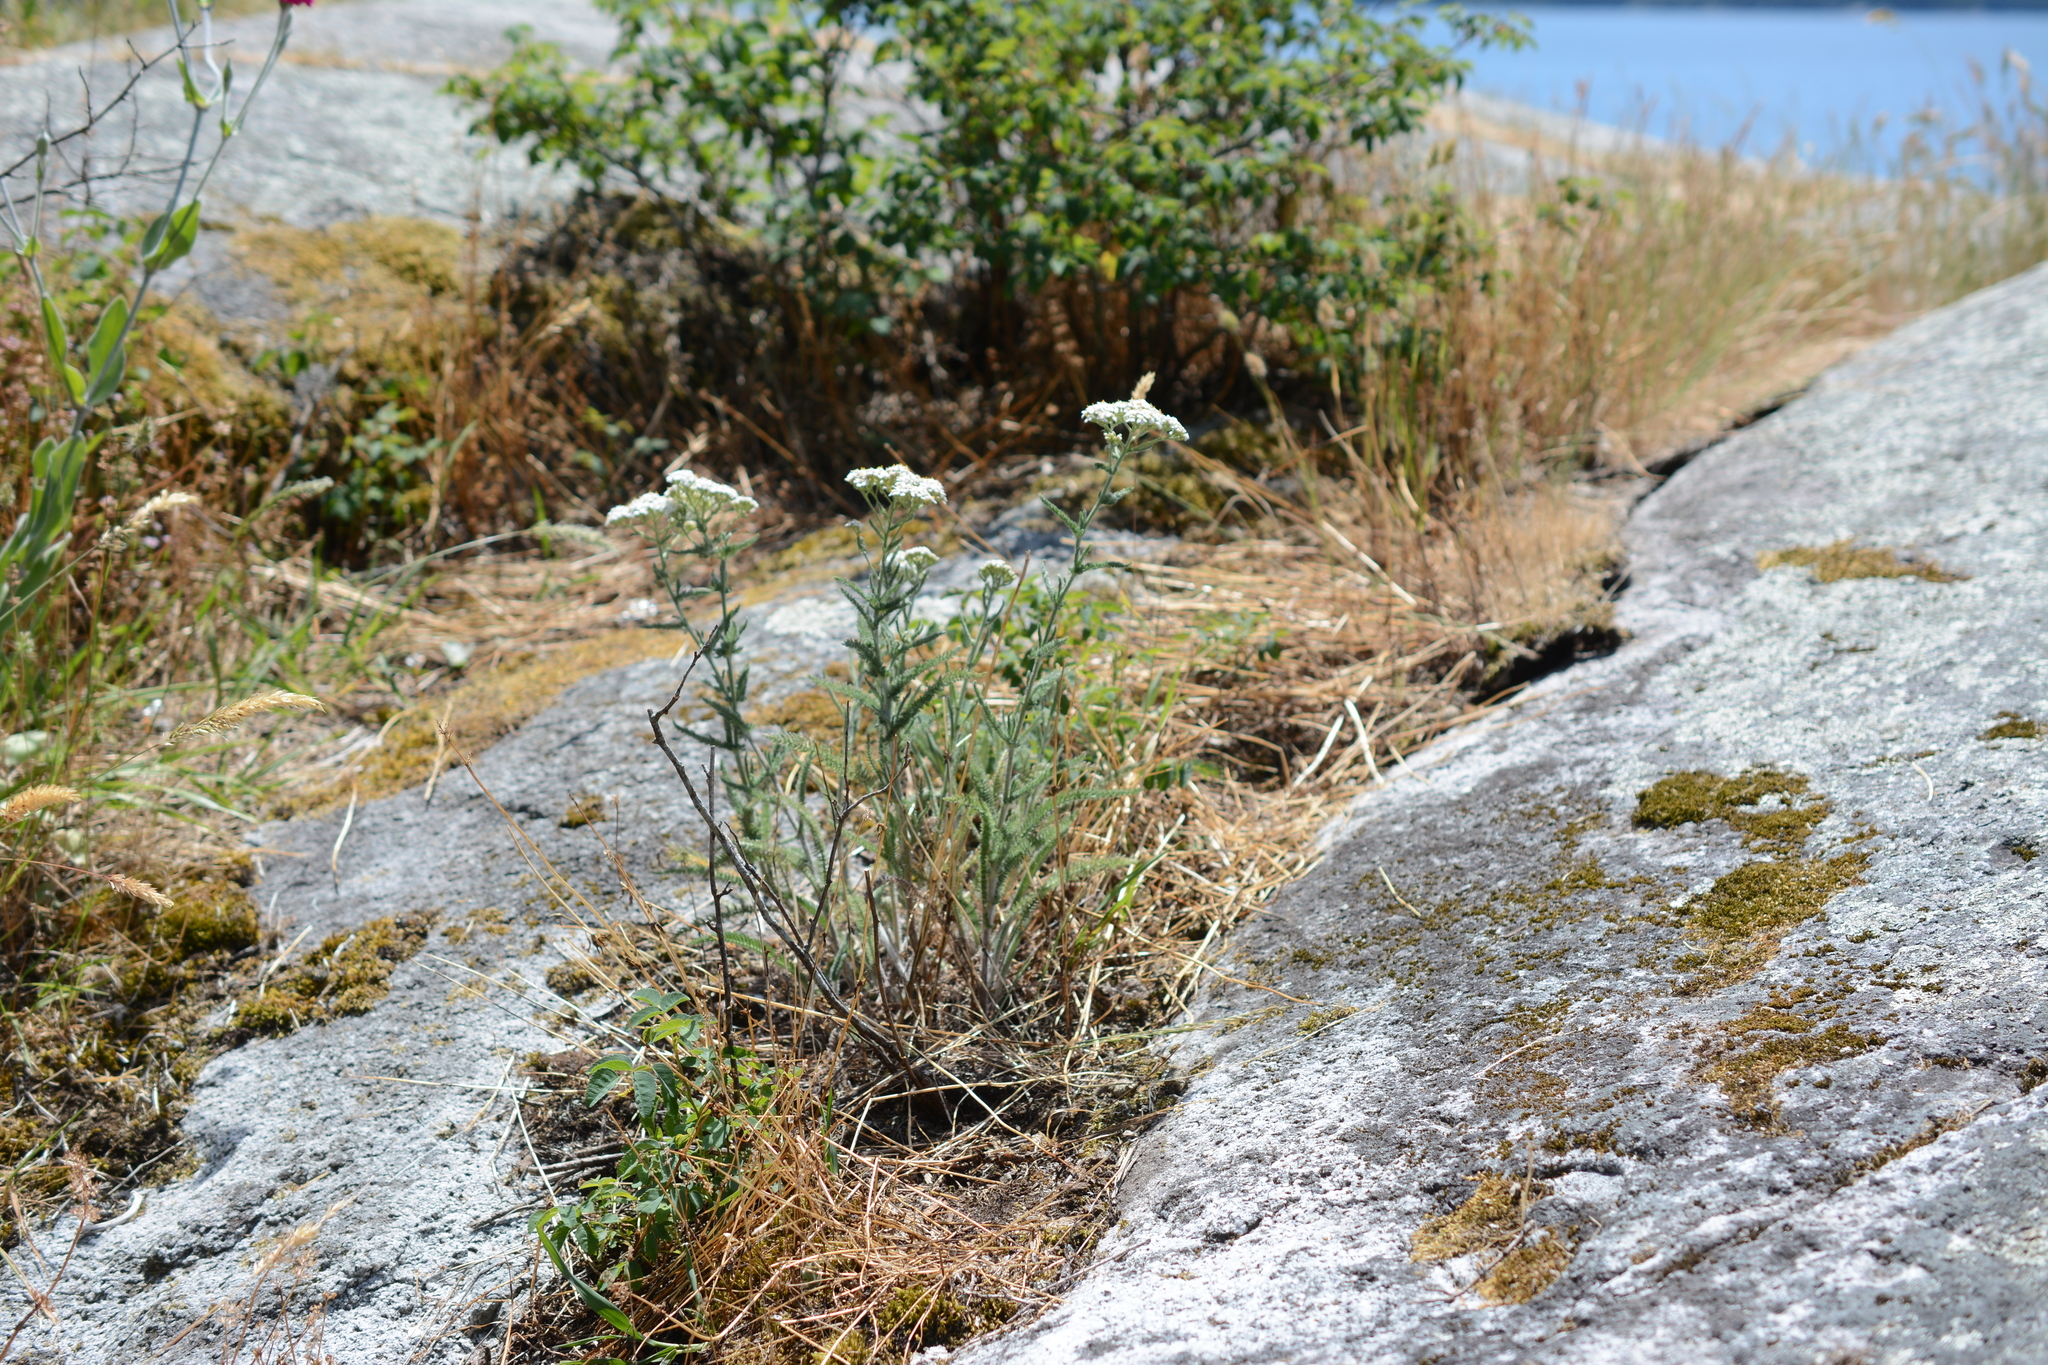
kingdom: Plantae
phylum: Tracheophyta
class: Magnoliopsida
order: Asterales
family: Asteraceae
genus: Achillea
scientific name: Achillea millefolium
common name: Yarrow
